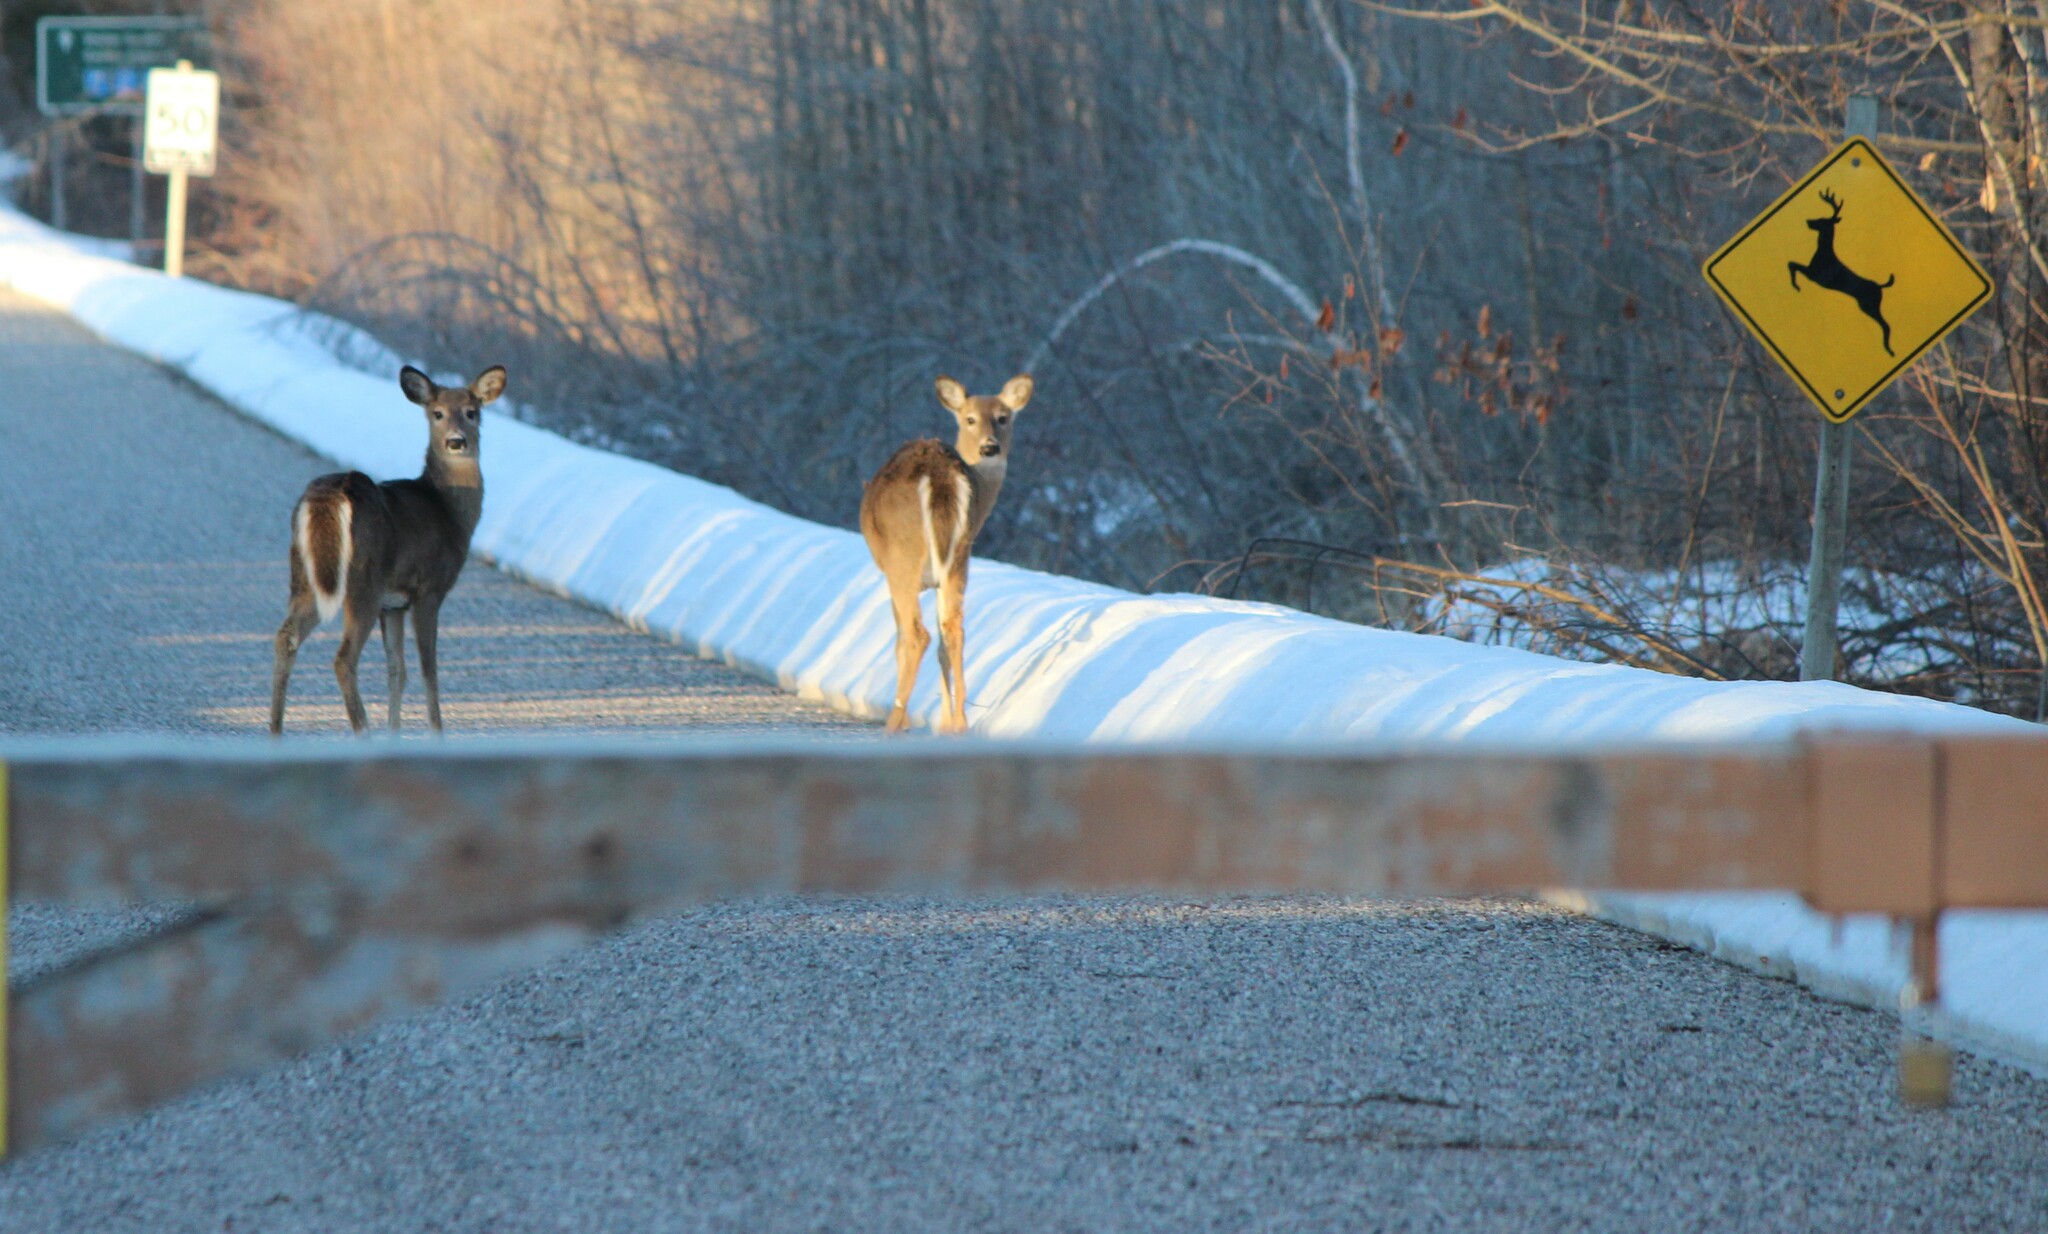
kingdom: Animalia
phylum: Chordata
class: Mammalia
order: Artiodactyla
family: Cervidae
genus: Odocoileus
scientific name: Odocoileus virginianus
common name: White-tailed deer
